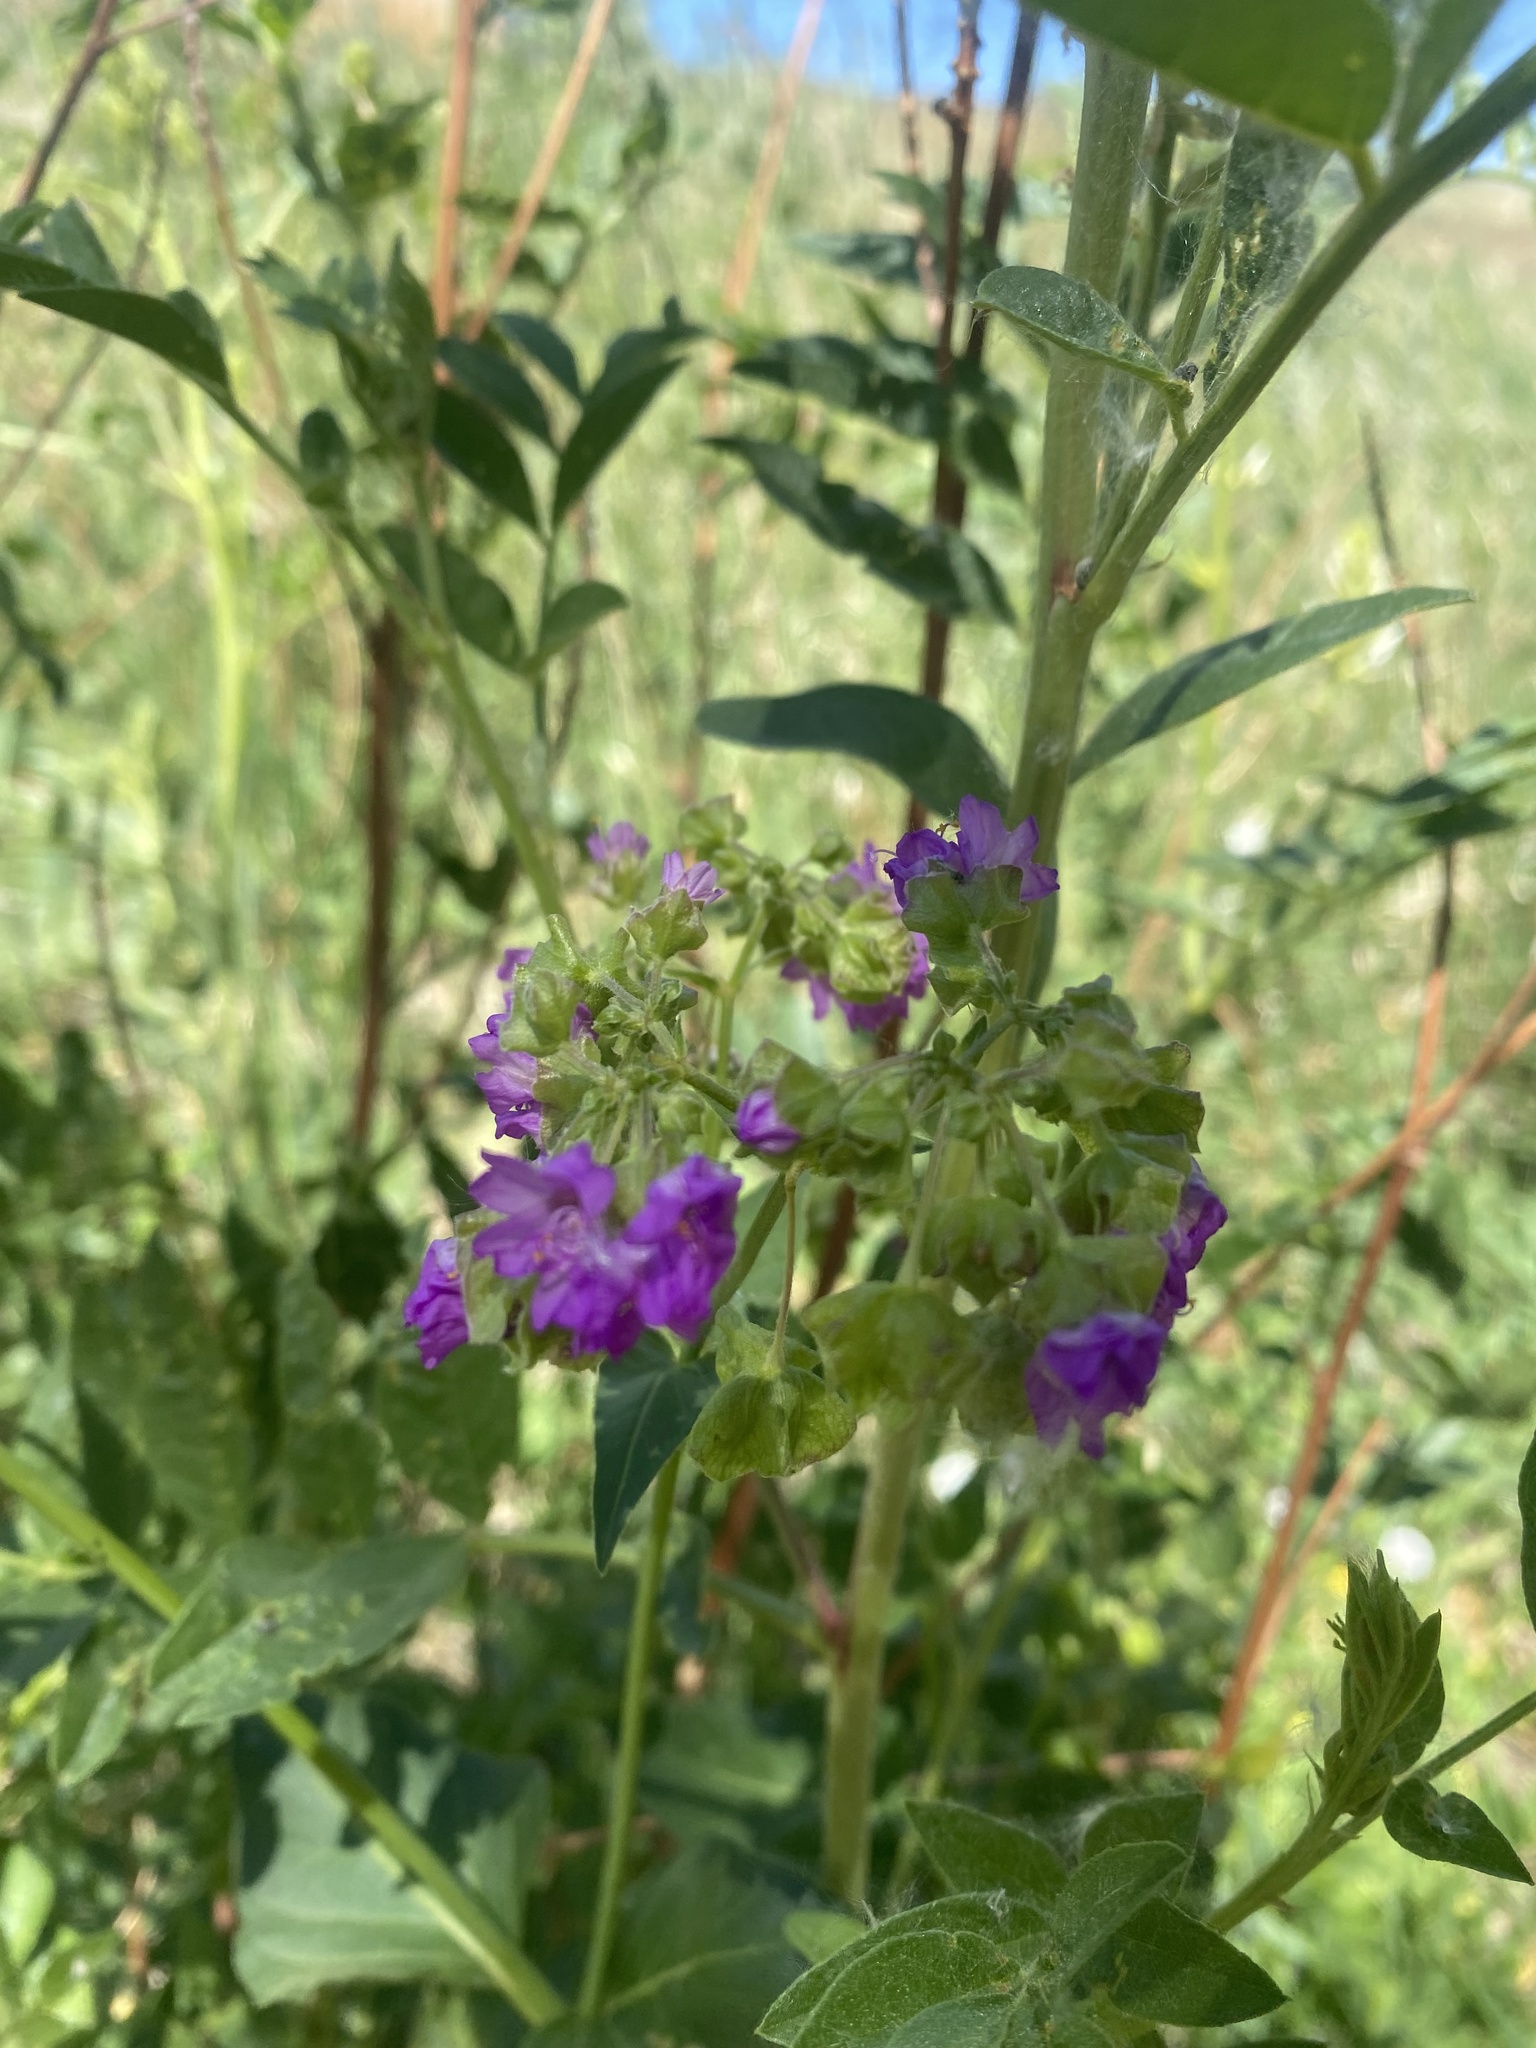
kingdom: Plantae
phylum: Tracheophyta
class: Magnoliopsida
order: Caryophyllales
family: Nyctaginaceae
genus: Mirabilis
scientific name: Mirabilis nyctaginea
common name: Umbrella wort
